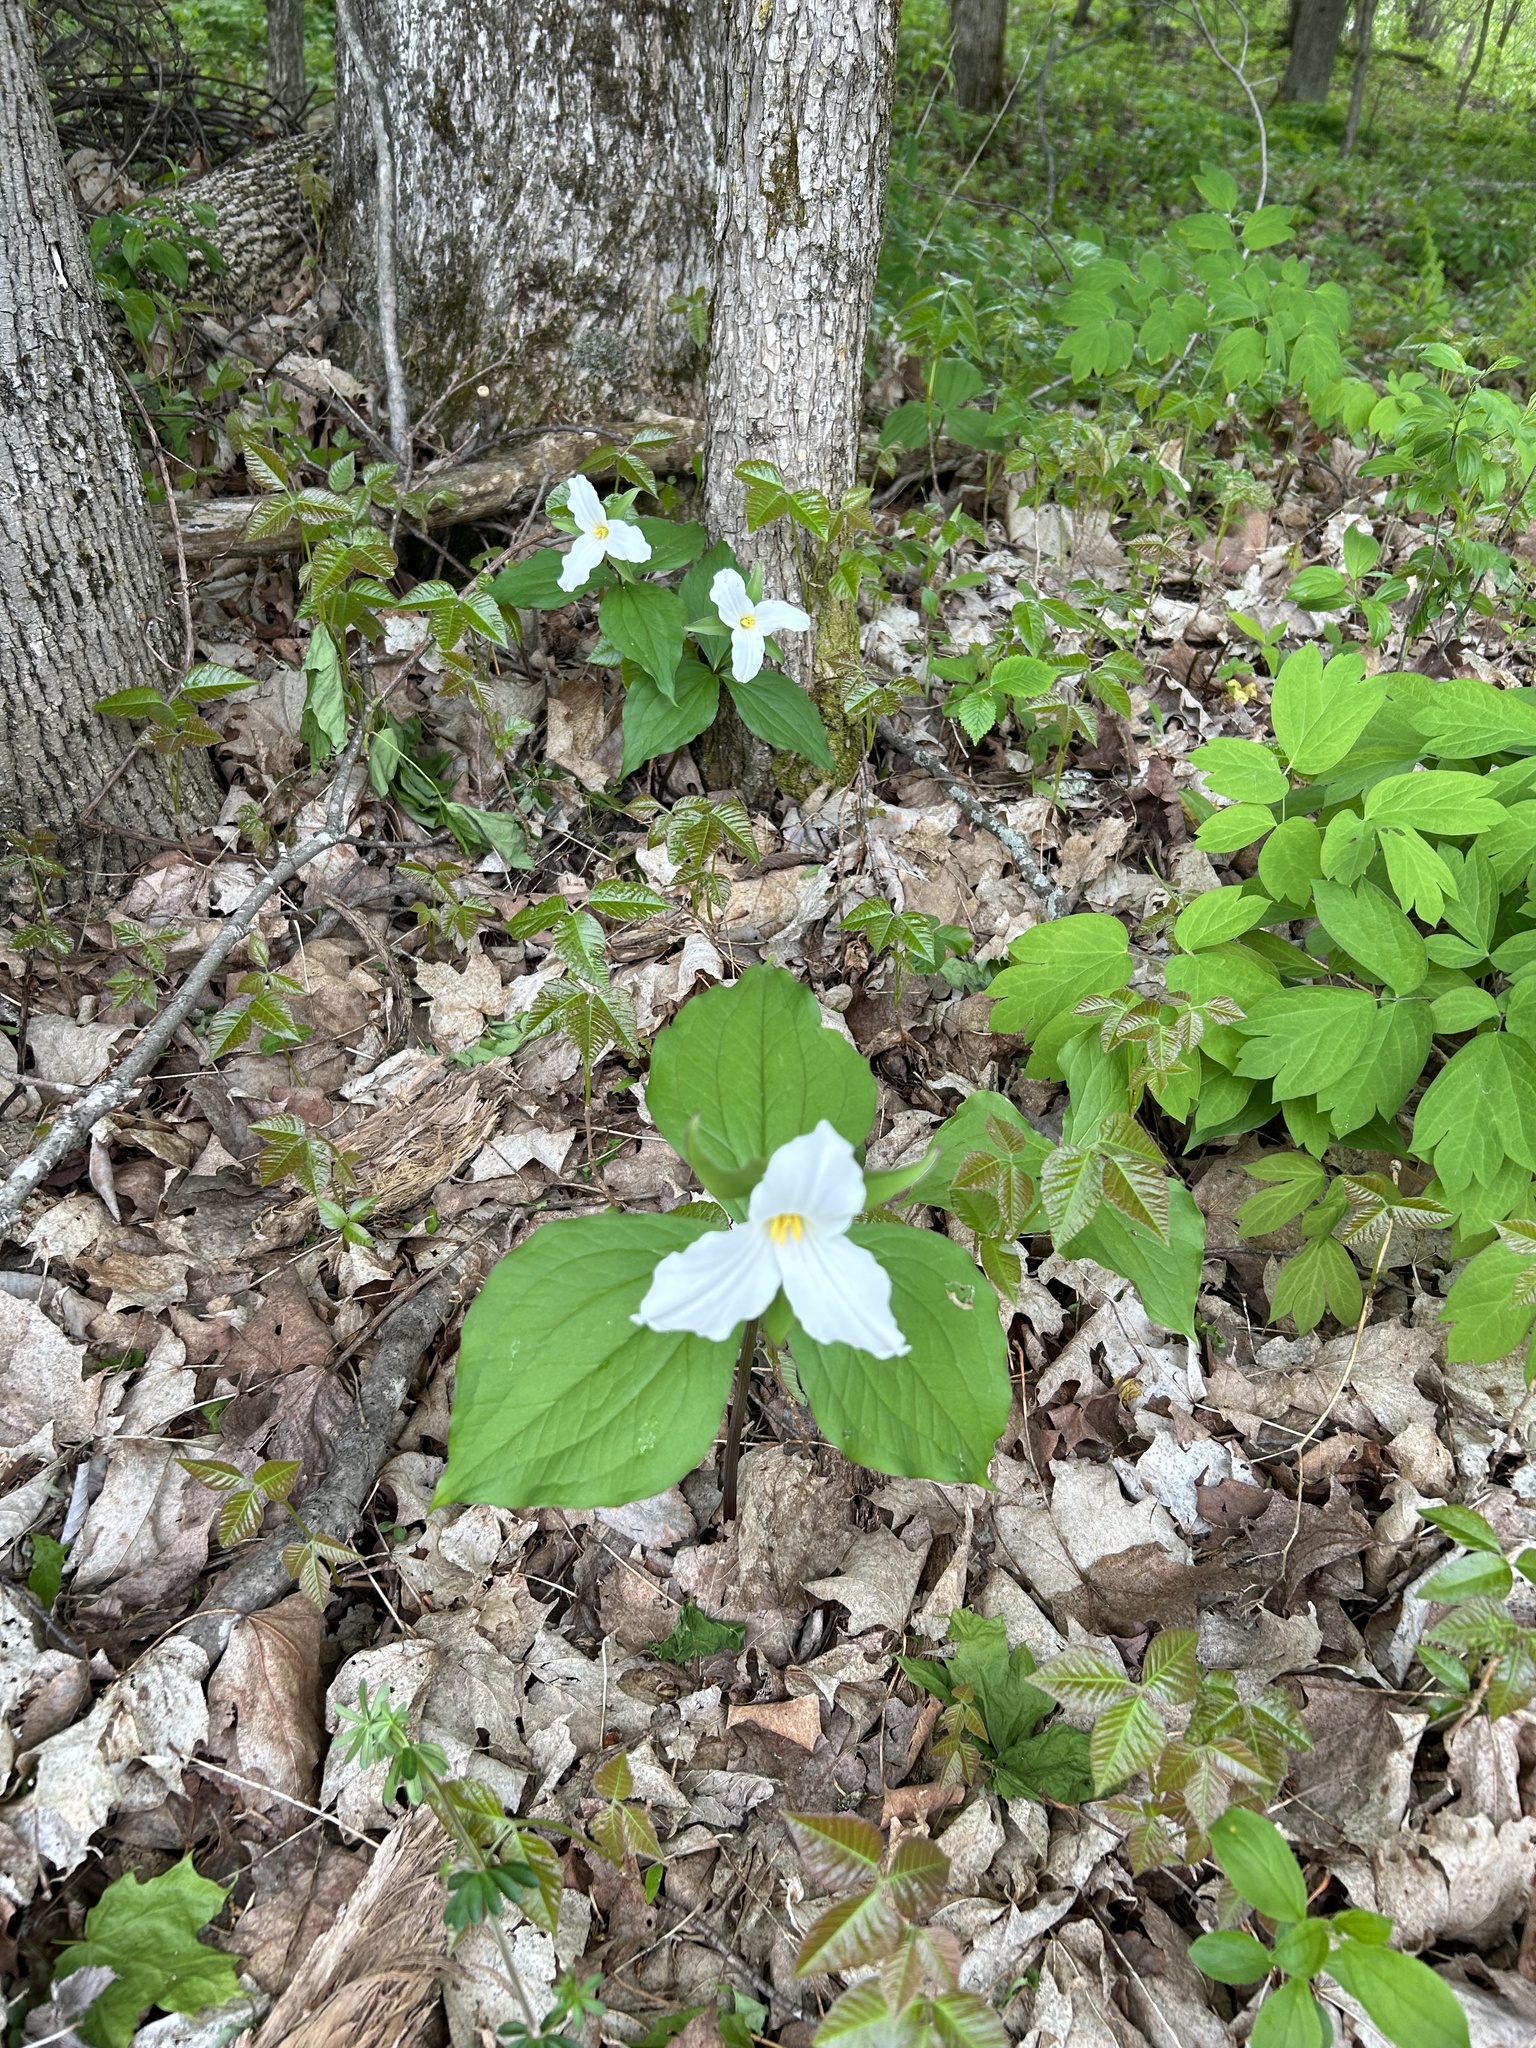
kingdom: Plantae
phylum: Tracheophyta
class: Liliopsida
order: Liliales
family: Melanthiaceae
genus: Trillium
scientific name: Trillium grandiflorum
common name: Great white trillium
